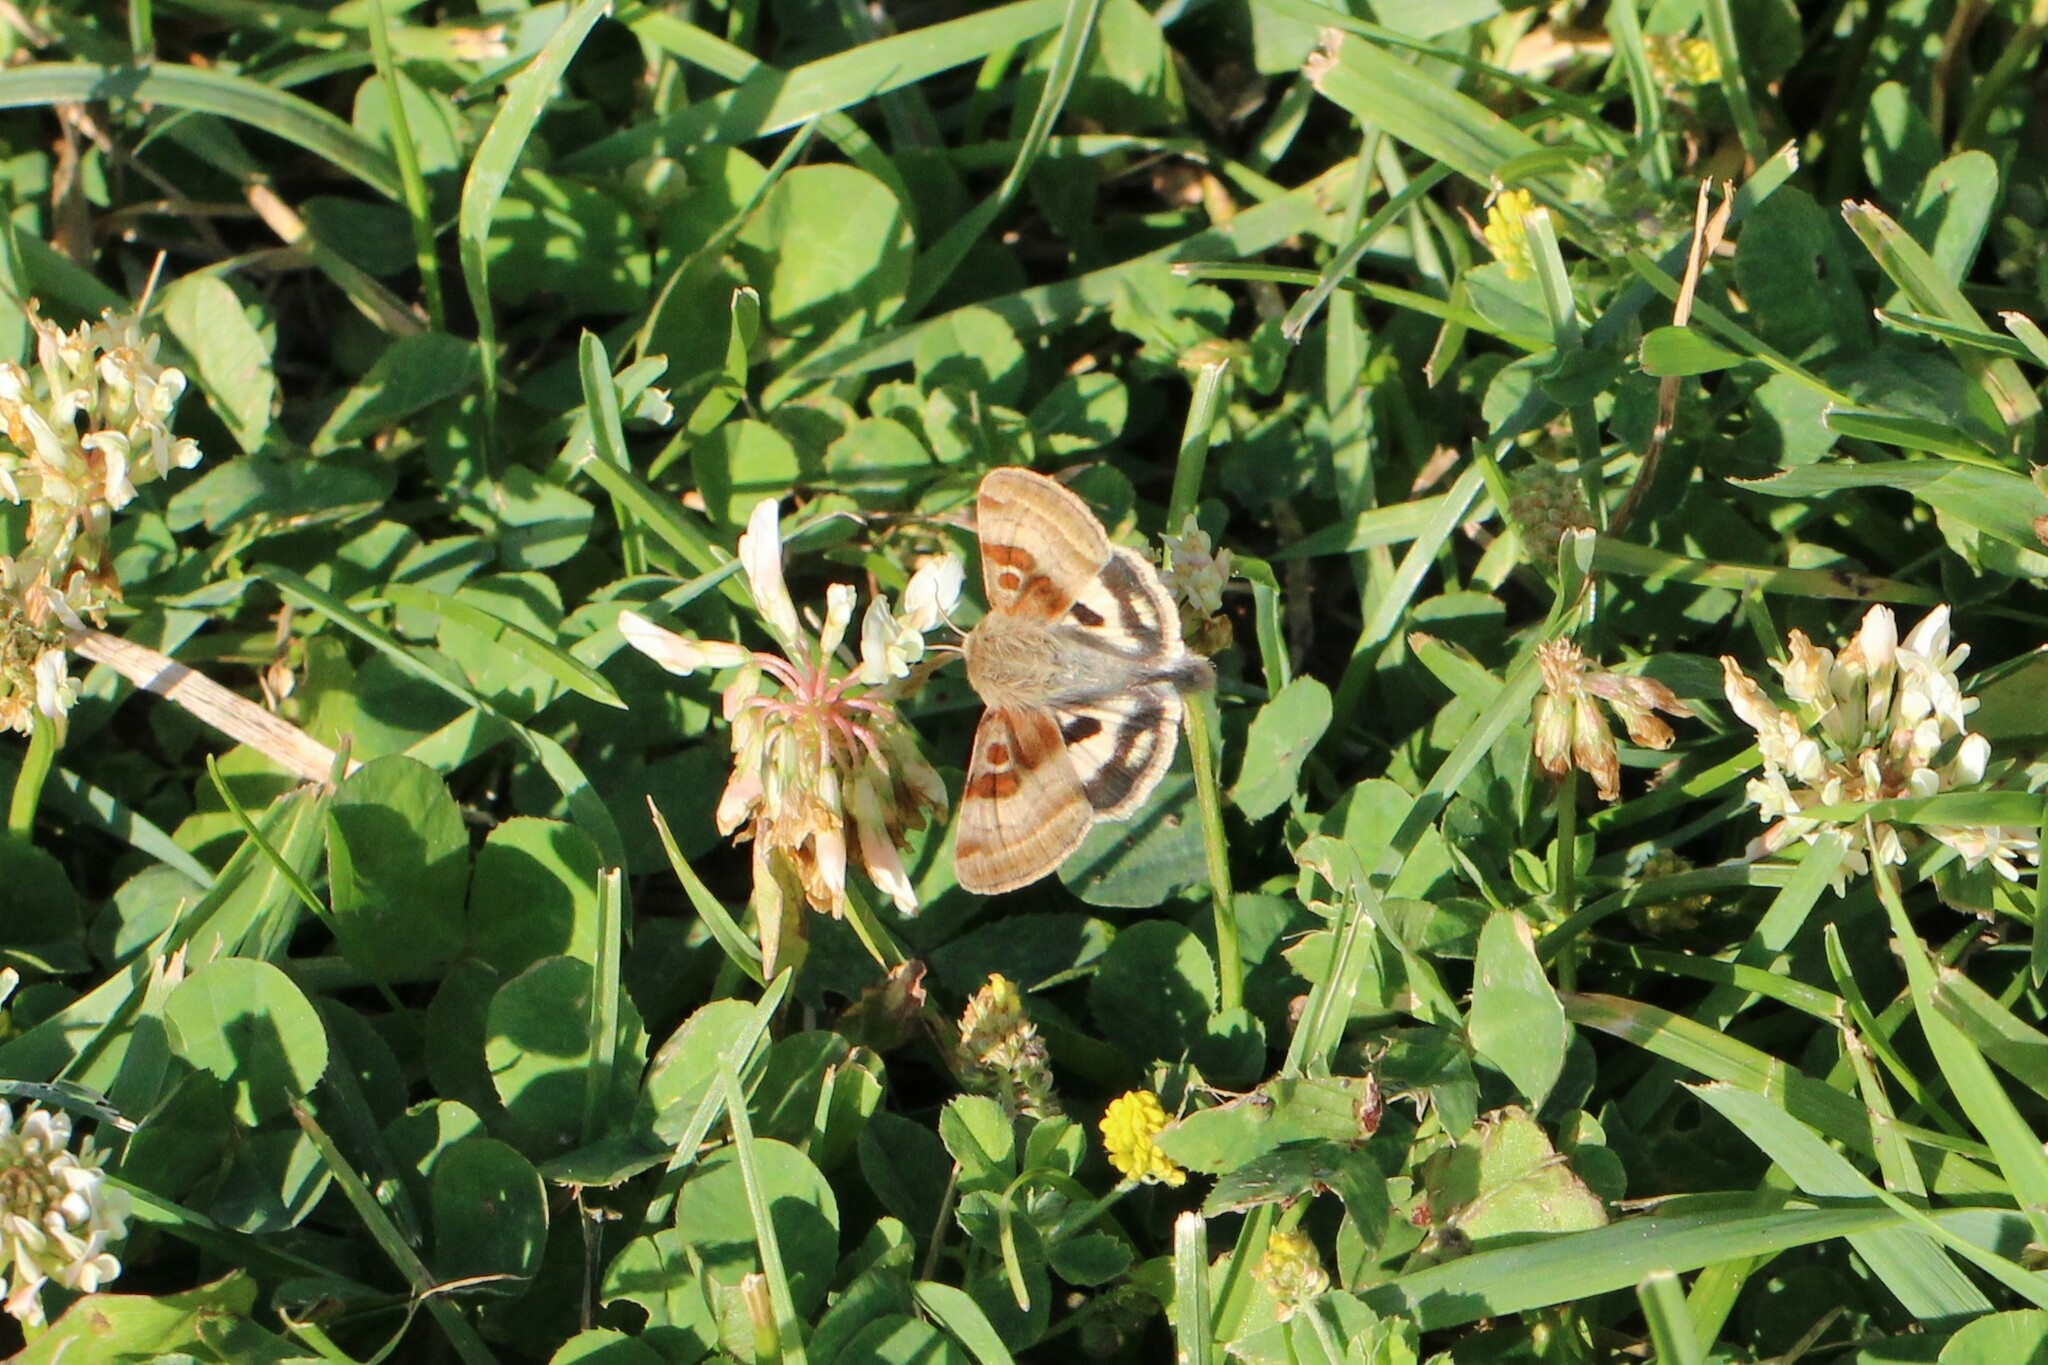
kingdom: Animalia
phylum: Arthropoda
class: Insecta
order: Lepidoptera
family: Noctuidae
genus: Heliothis
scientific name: Heliothis oregonica
